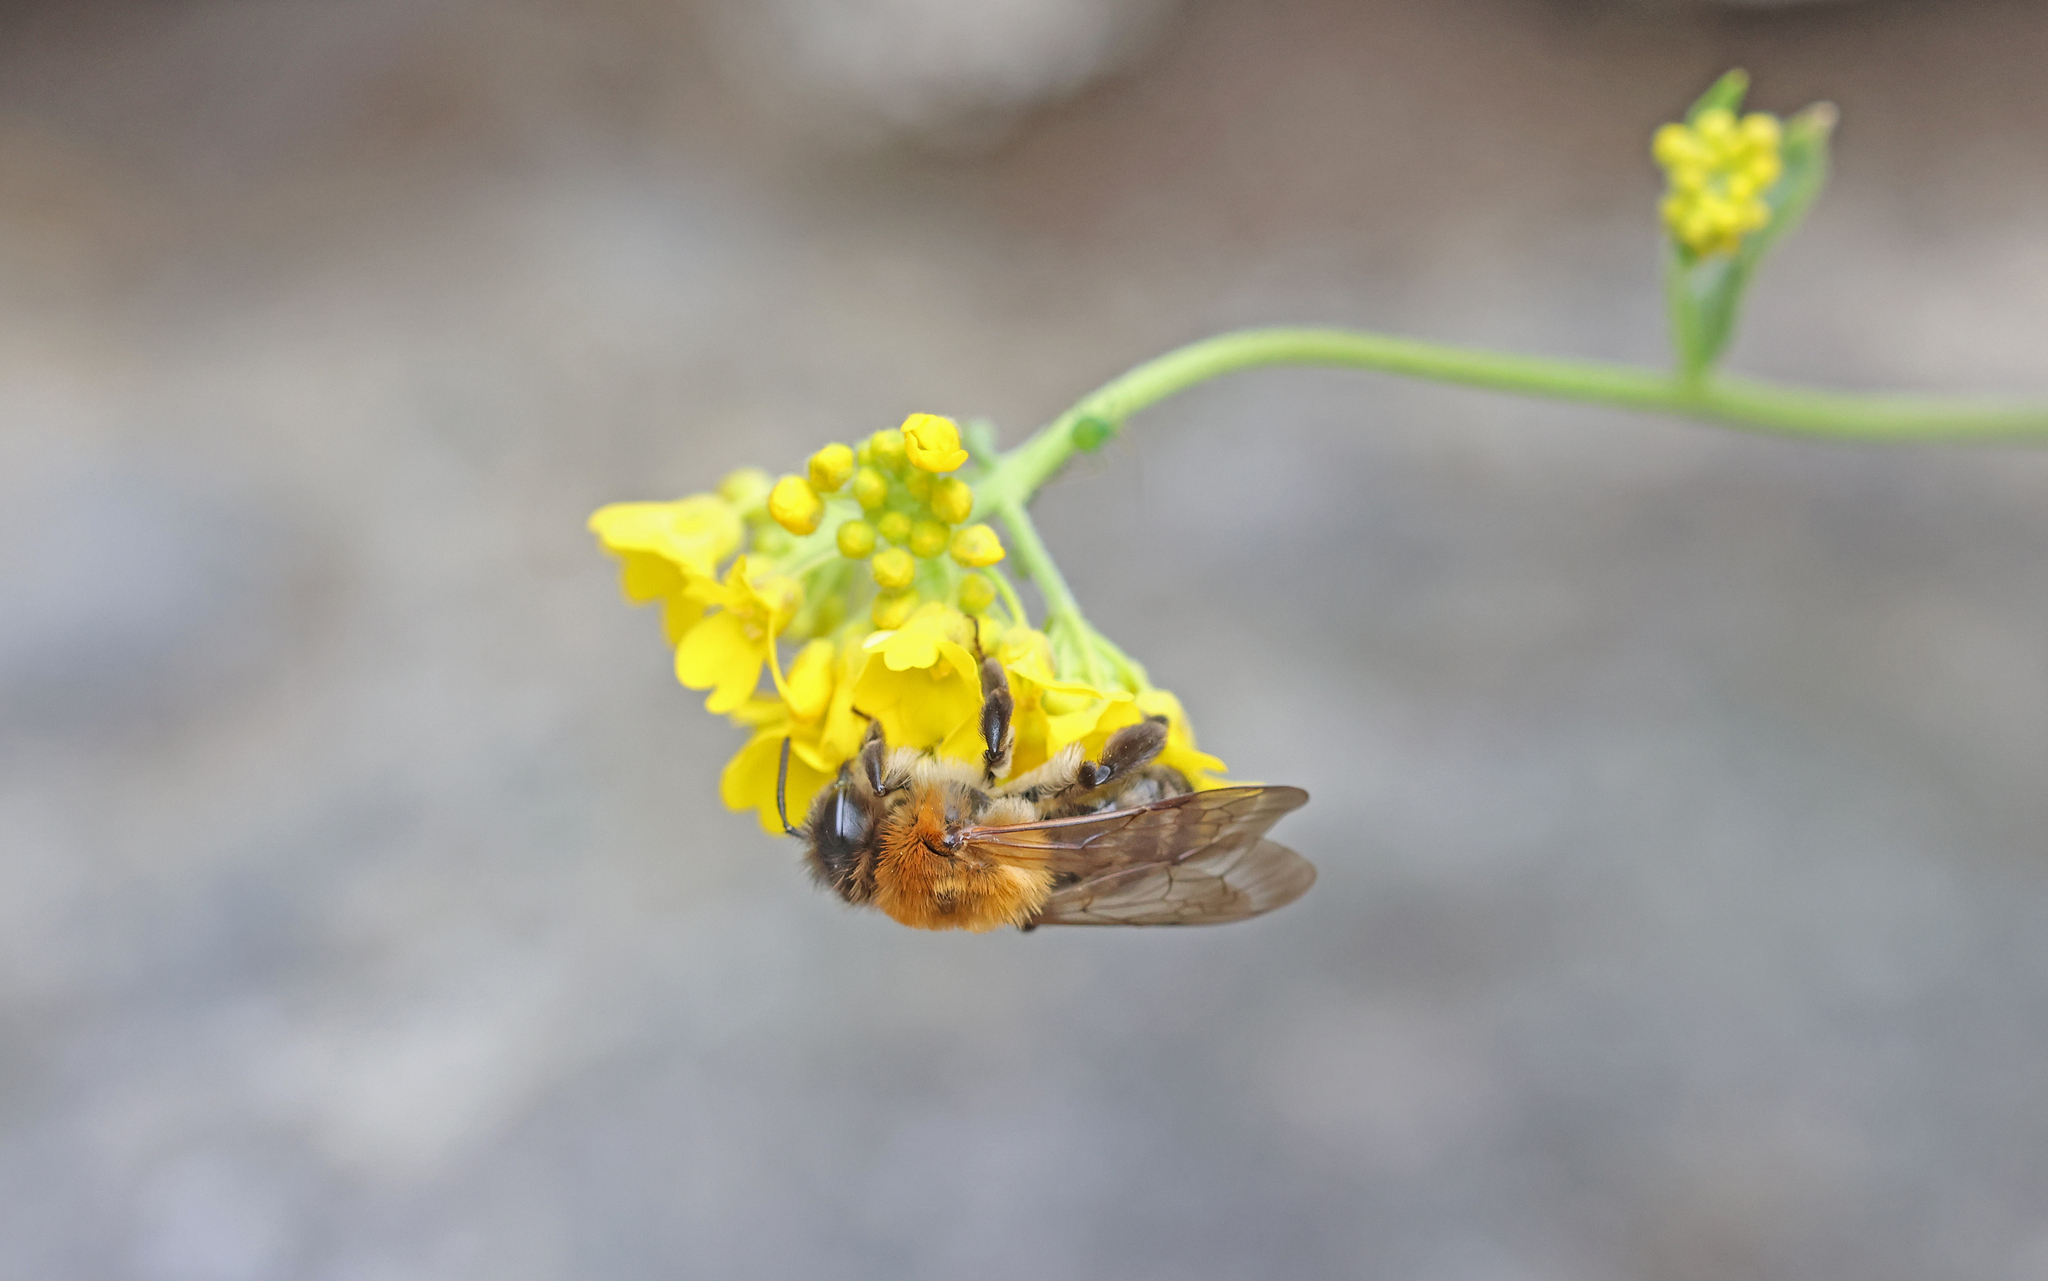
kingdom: Animalia
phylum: Arthropoda
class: Insecta
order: Hymenoptera
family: Andrenidae
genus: Andrena
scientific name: Andrena nitida
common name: Grey-patched mining bee
